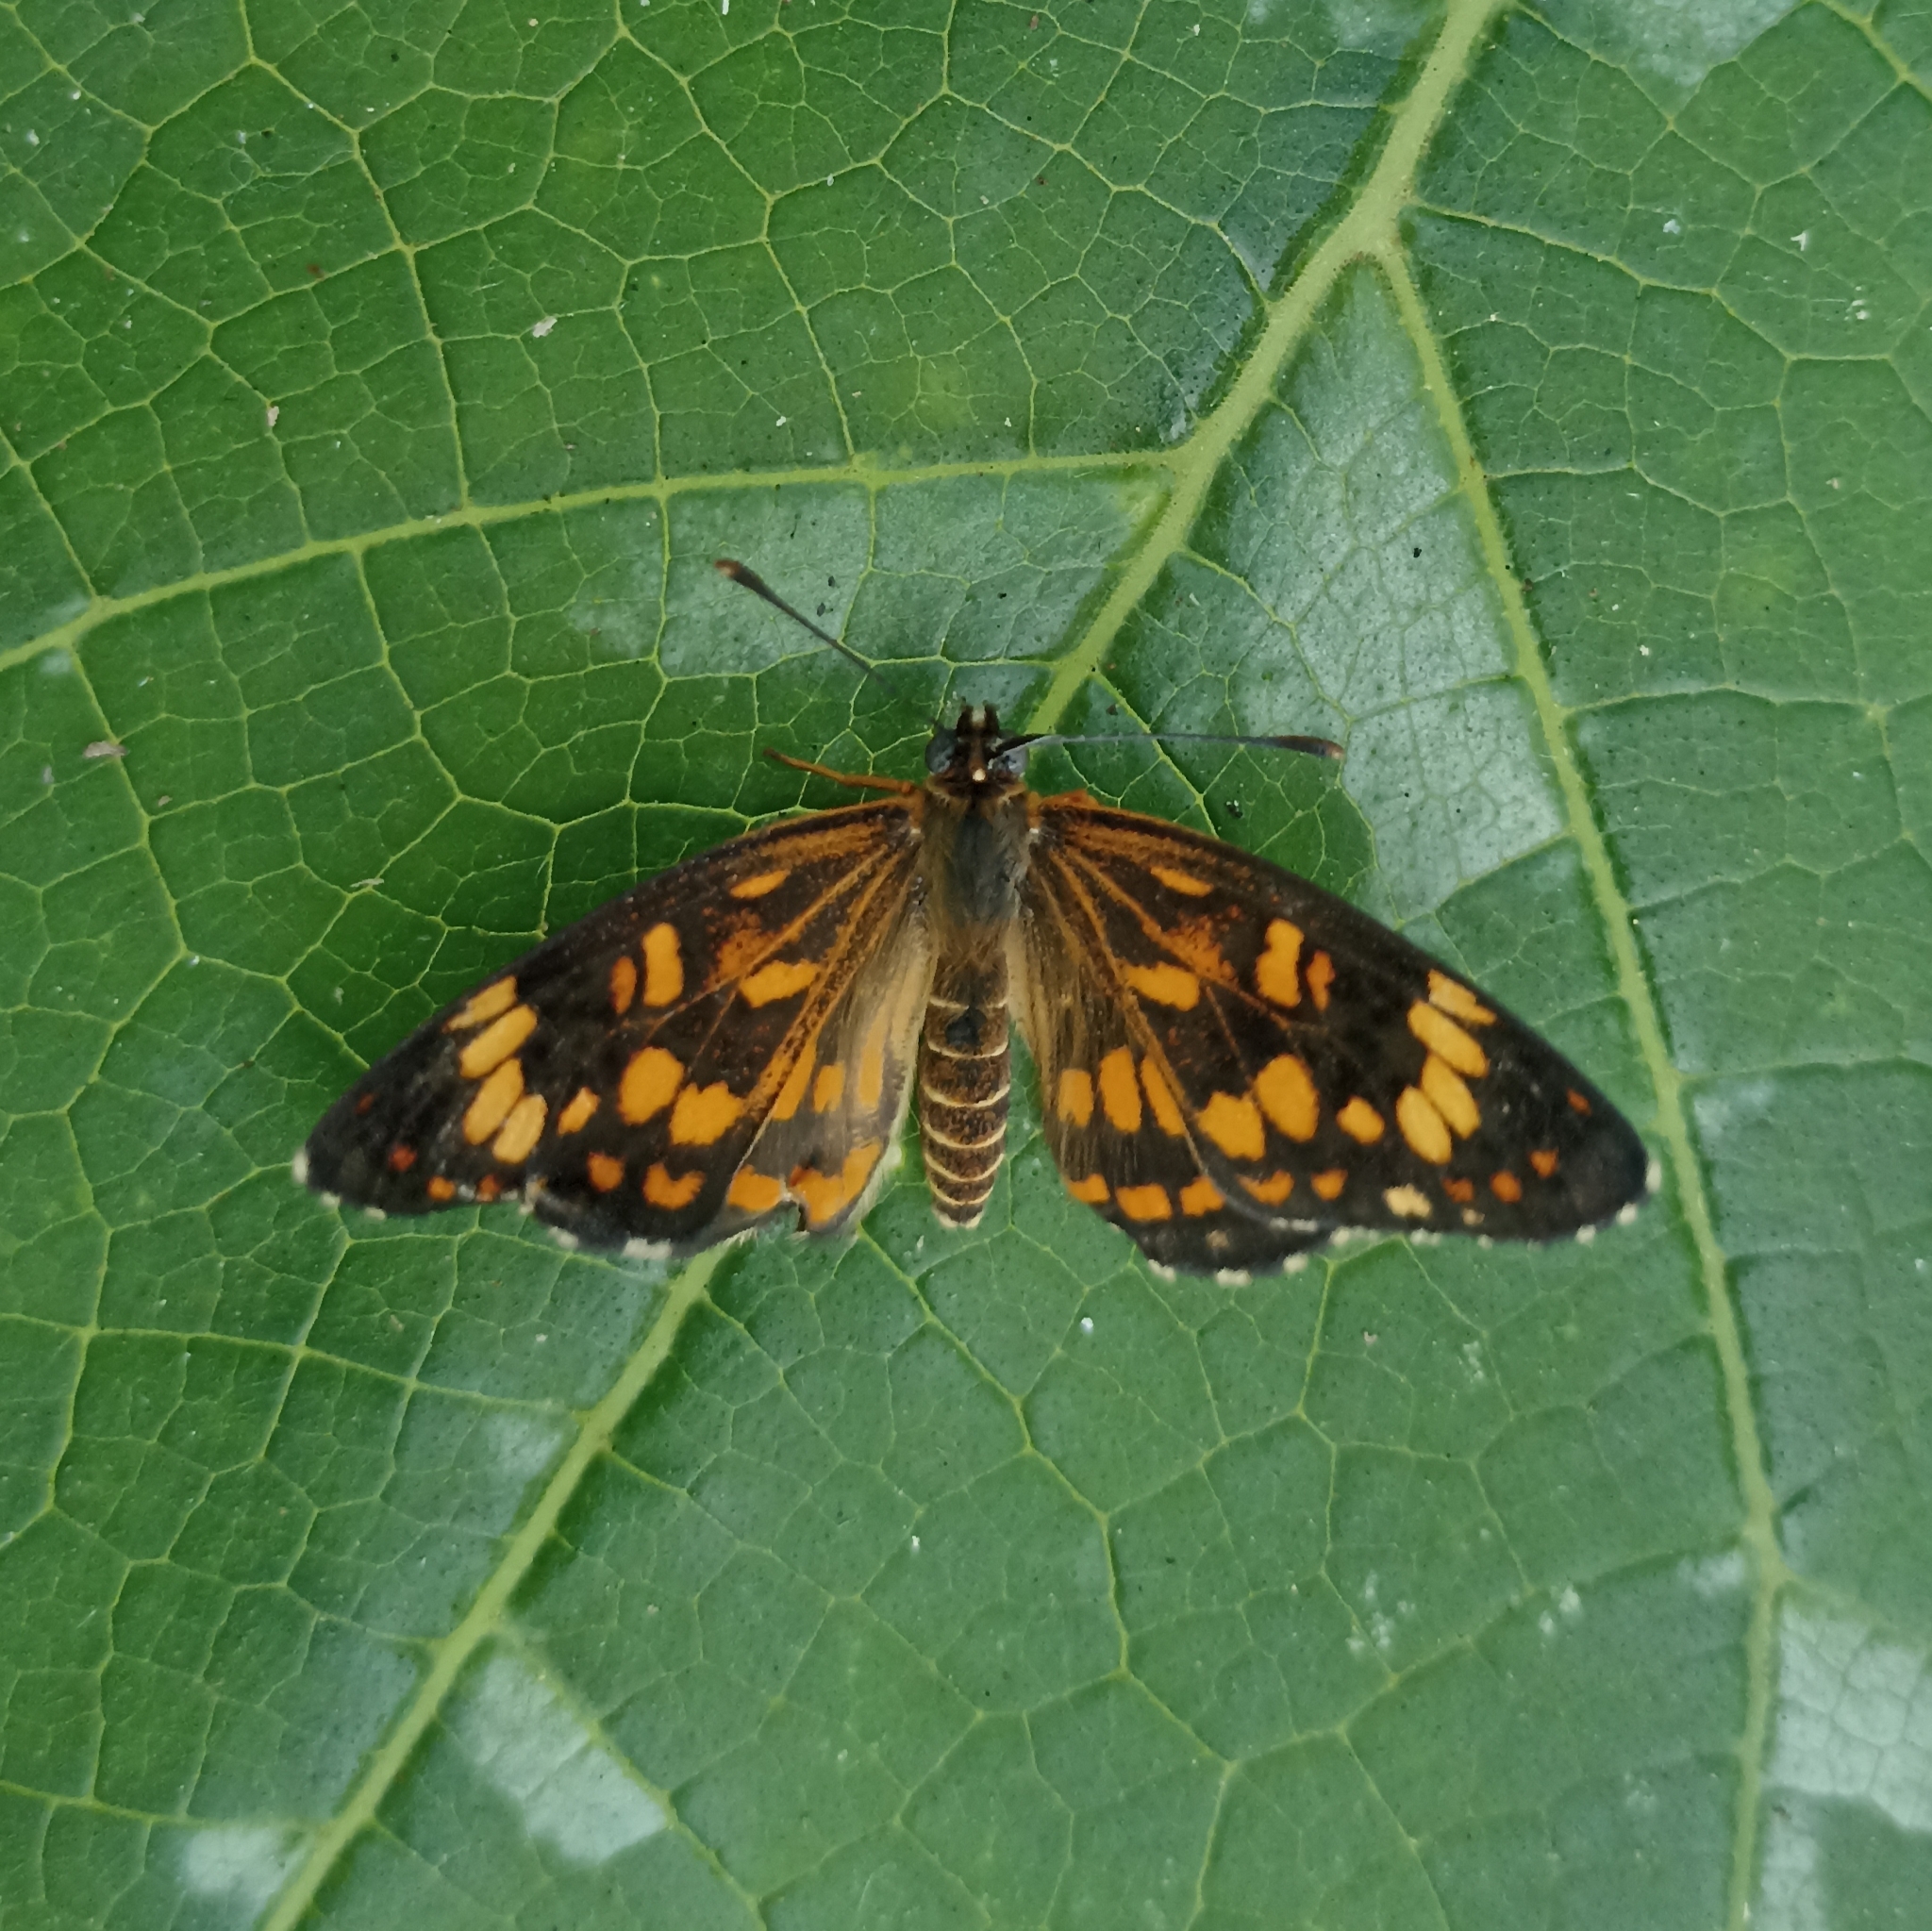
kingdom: Animalia
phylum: Arthropoda
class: Insecta
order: Lepidoptera
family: Nymphalidae
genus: Thessalia
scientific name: Thessalia theona
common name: Nymphalid moth
